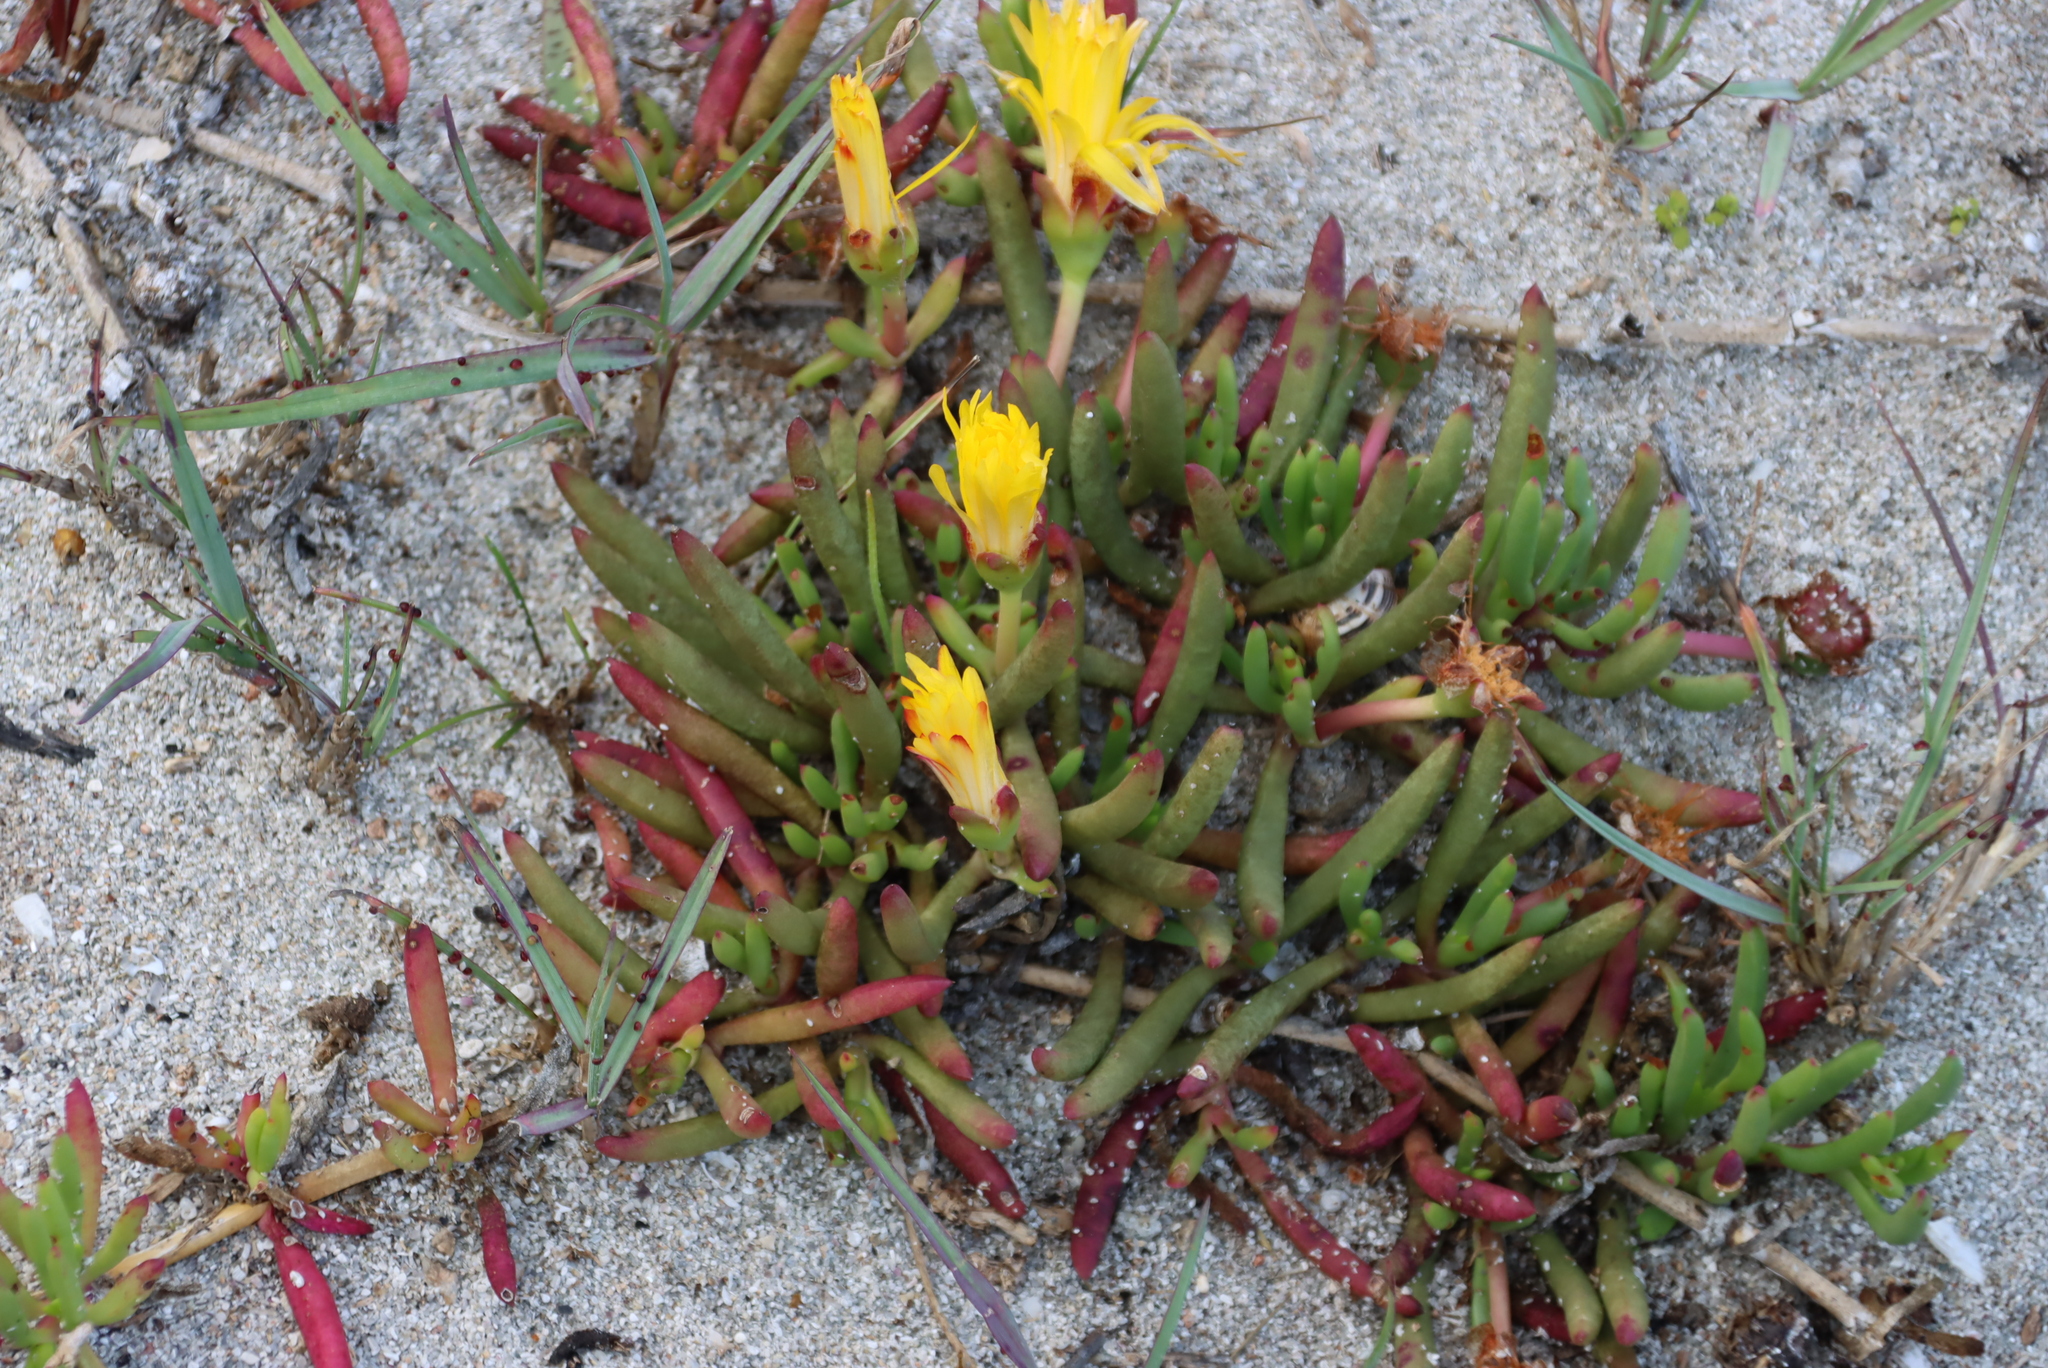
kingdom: Plantae
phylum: Tracheophyta
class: Magnoliopsida
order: Caryophyllales
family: Aizoaceae
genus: Jordaaniella
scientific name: Jordaaniella dubia
